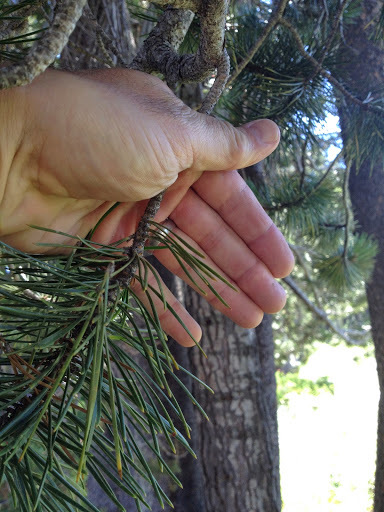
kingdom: Plantae
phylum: Tracheophyta
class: Pinopsida
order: Pinales
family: Pinaceae
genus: Pinus
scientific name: Pinus contorta
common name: Lodgepole pine
